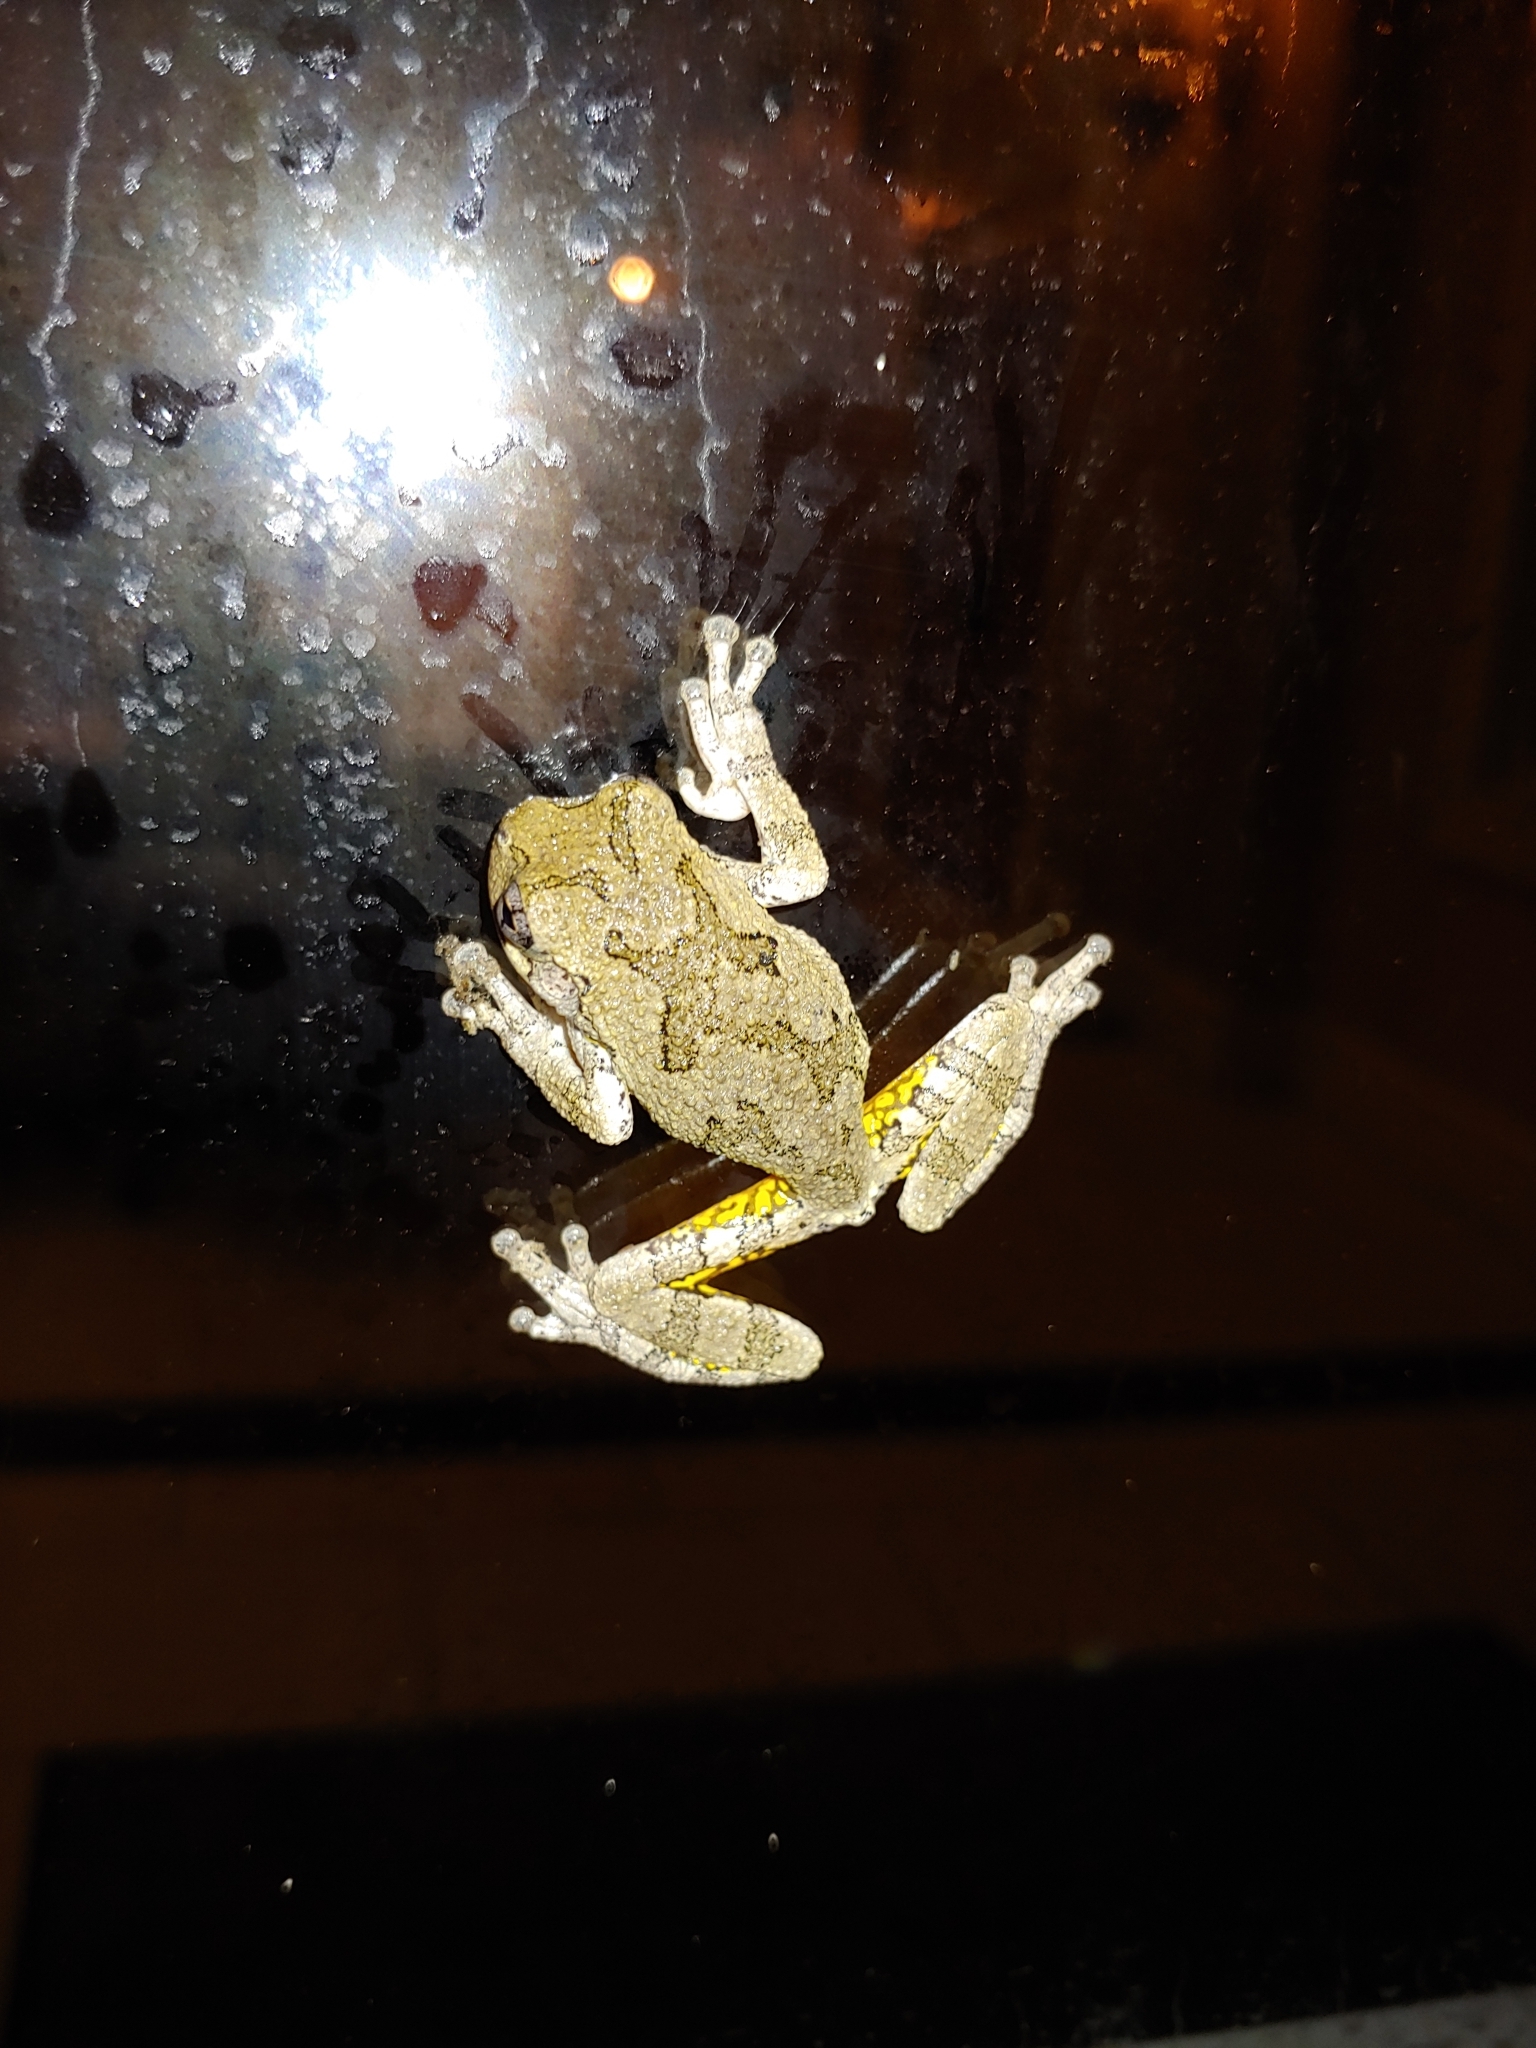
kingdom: Animalia
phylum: Chordata
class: Amphibia
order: Anura
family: Hylidae
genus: Dryophytes
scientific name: Dryophytes versicolor
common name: Gray treefrog
